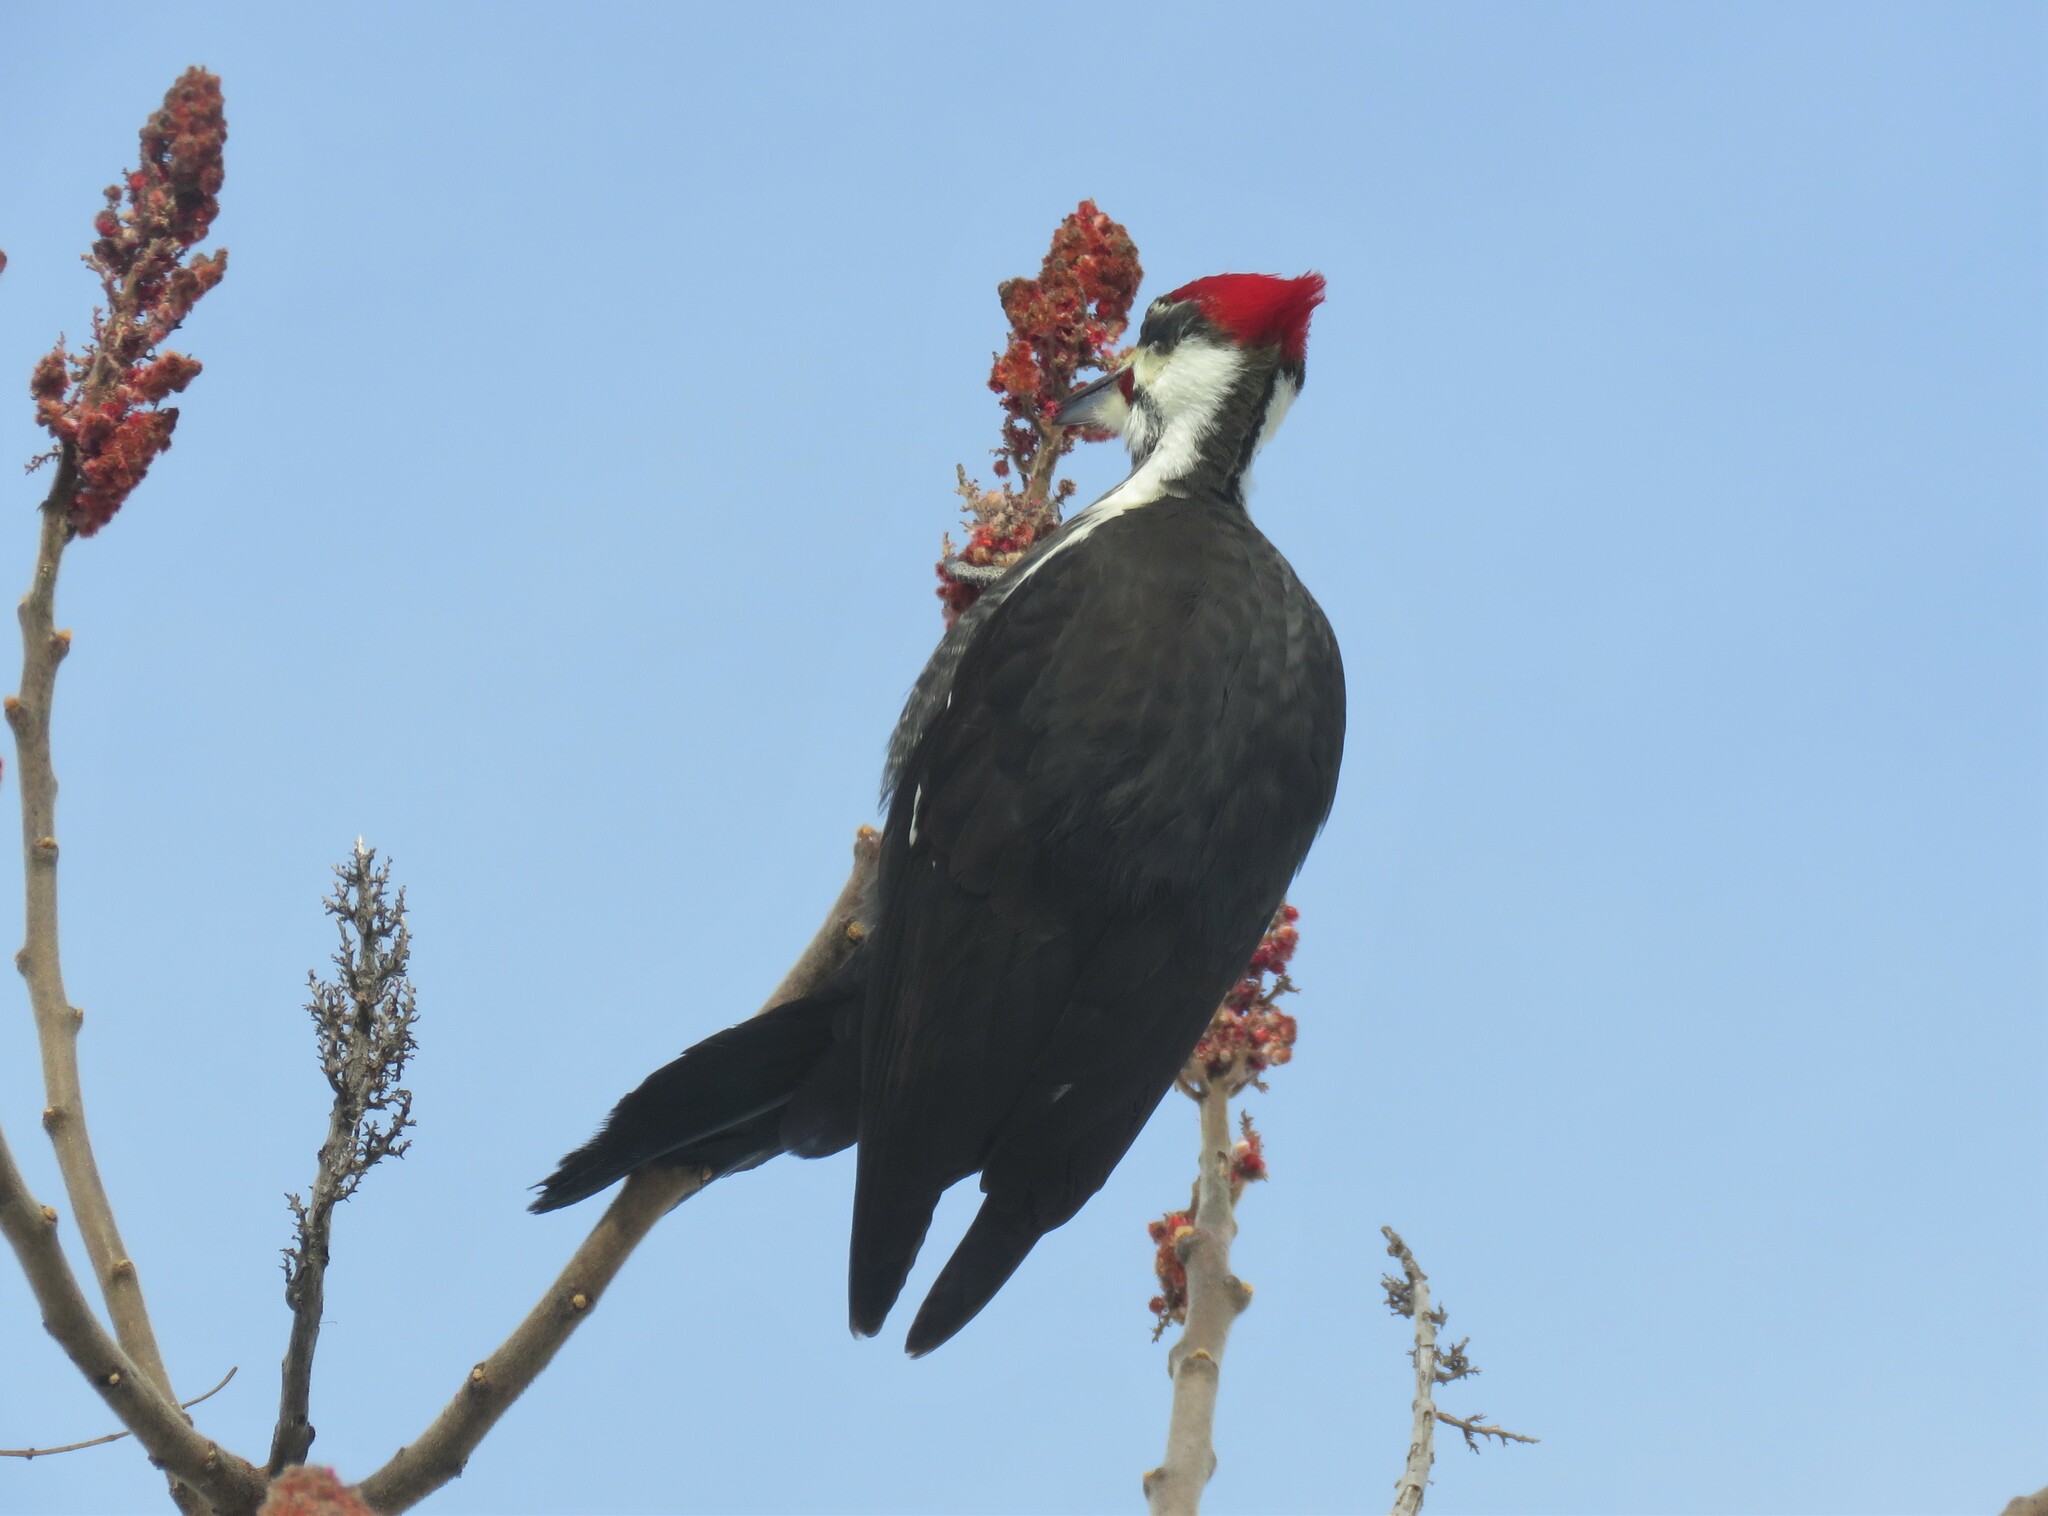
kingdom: Animalia
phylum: Chordata
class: Aves
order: Piciformes
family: Picidae
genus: Dryocopus
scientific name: Dryocopus pileatus
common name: Pileated woodpecker
